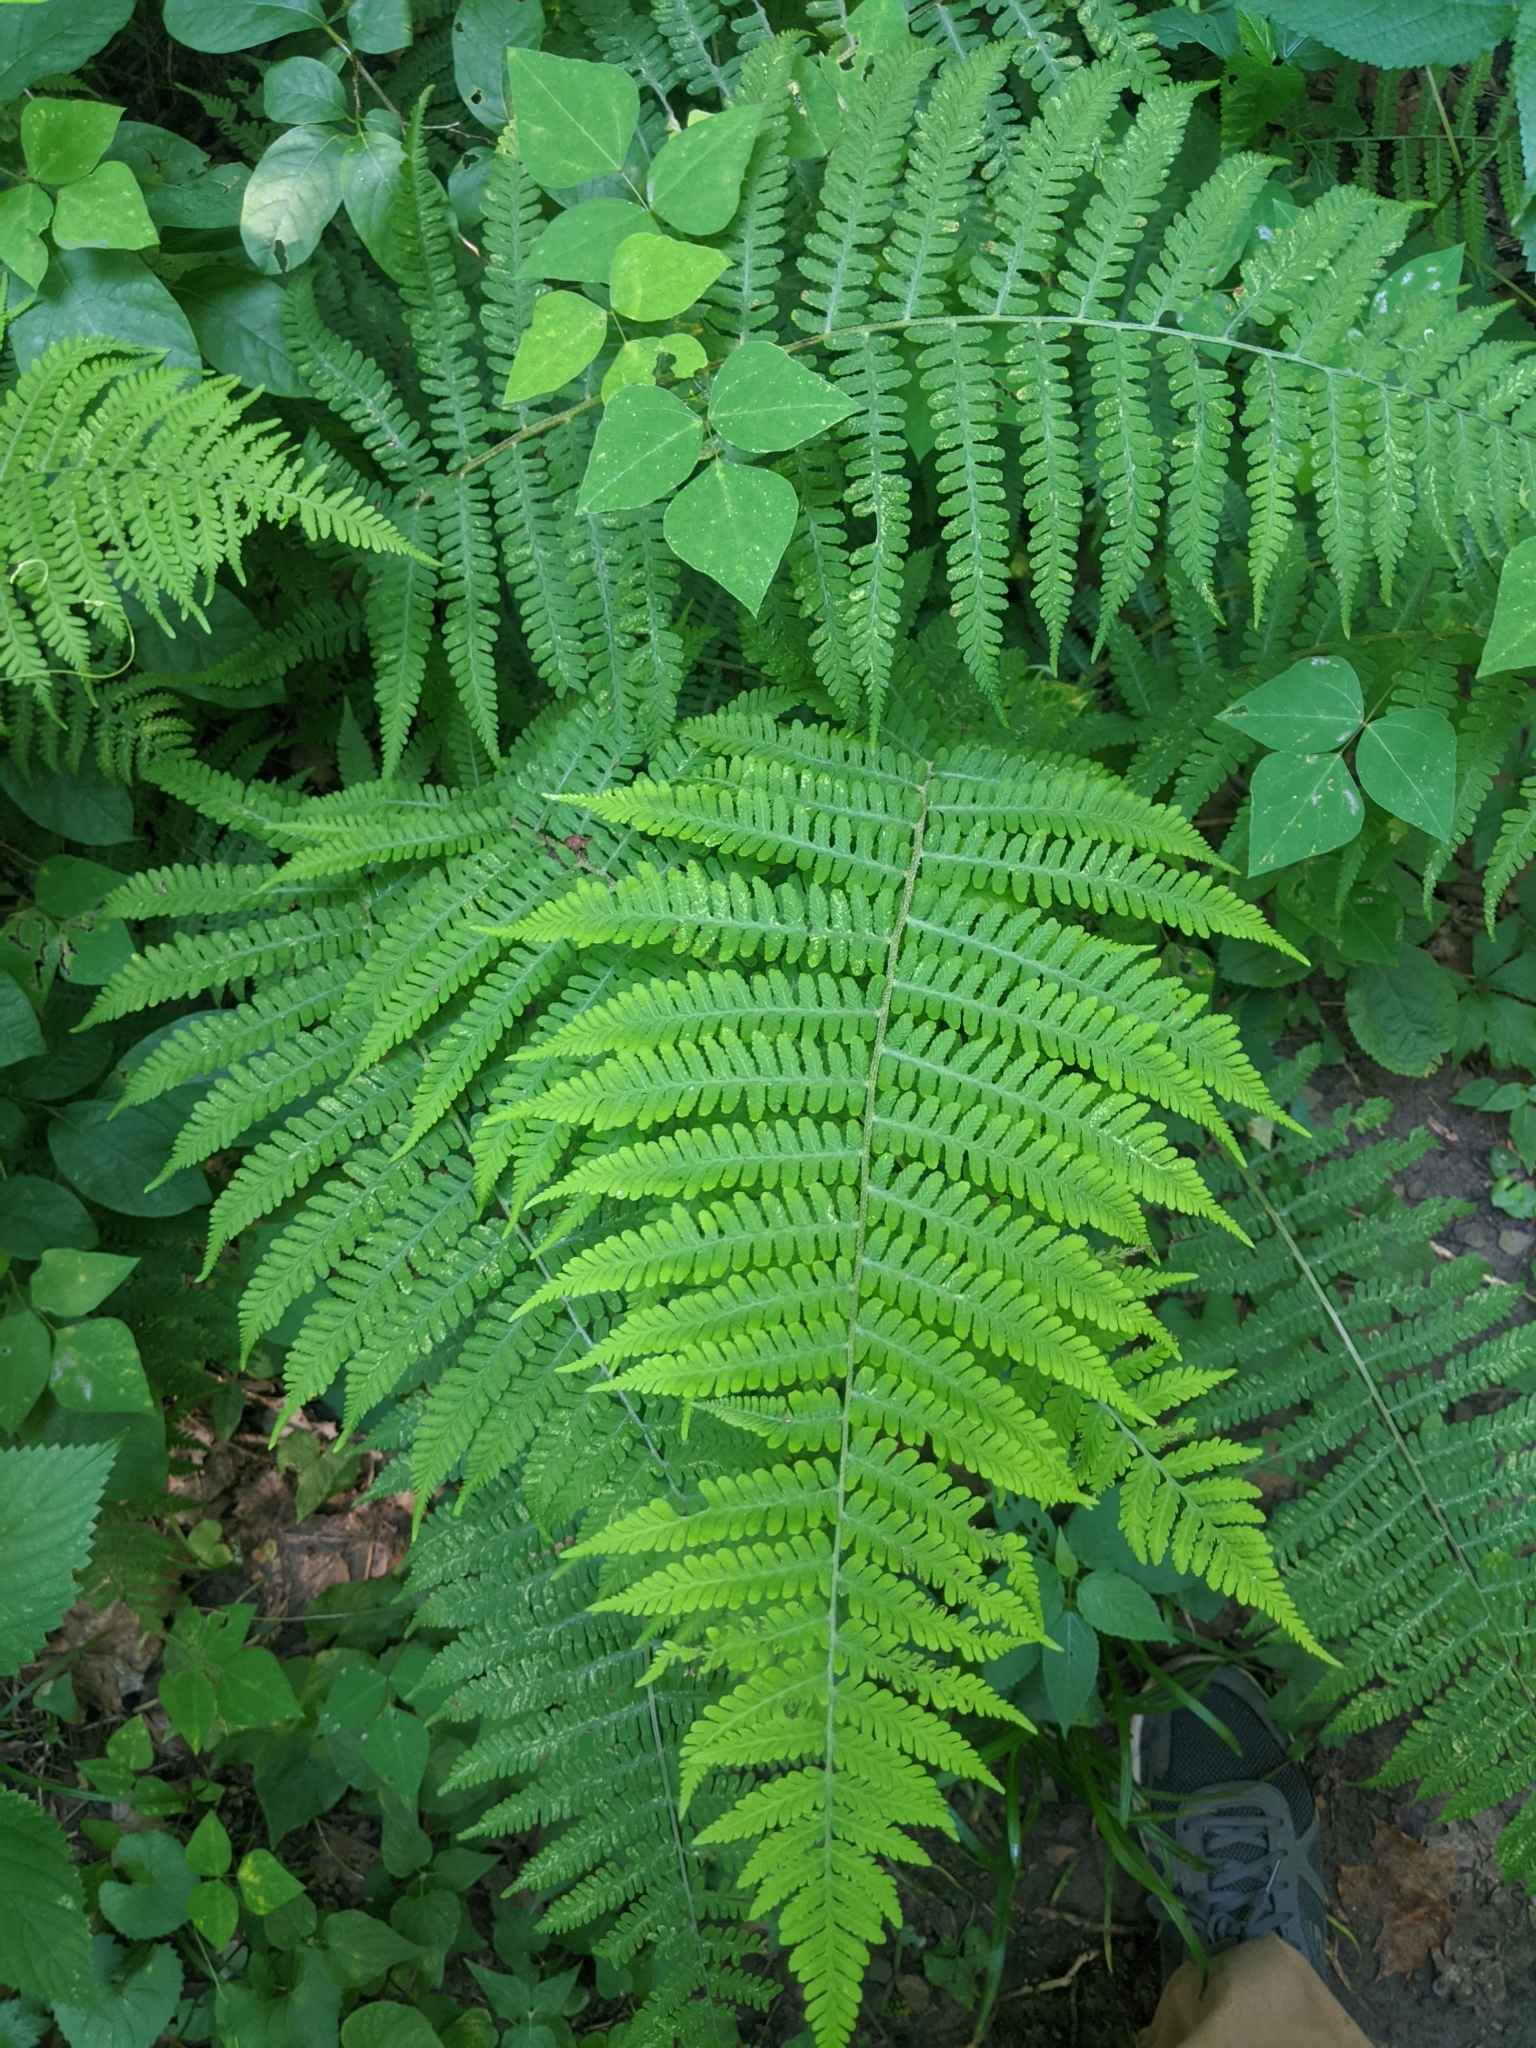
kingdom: Plantae
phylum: Tracheophyta
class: Polypodiopsida
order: Polypodiales
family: Athyriaceae
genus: Deparia
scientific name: Deparia acrostichoides
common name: Silver false spleenwort
